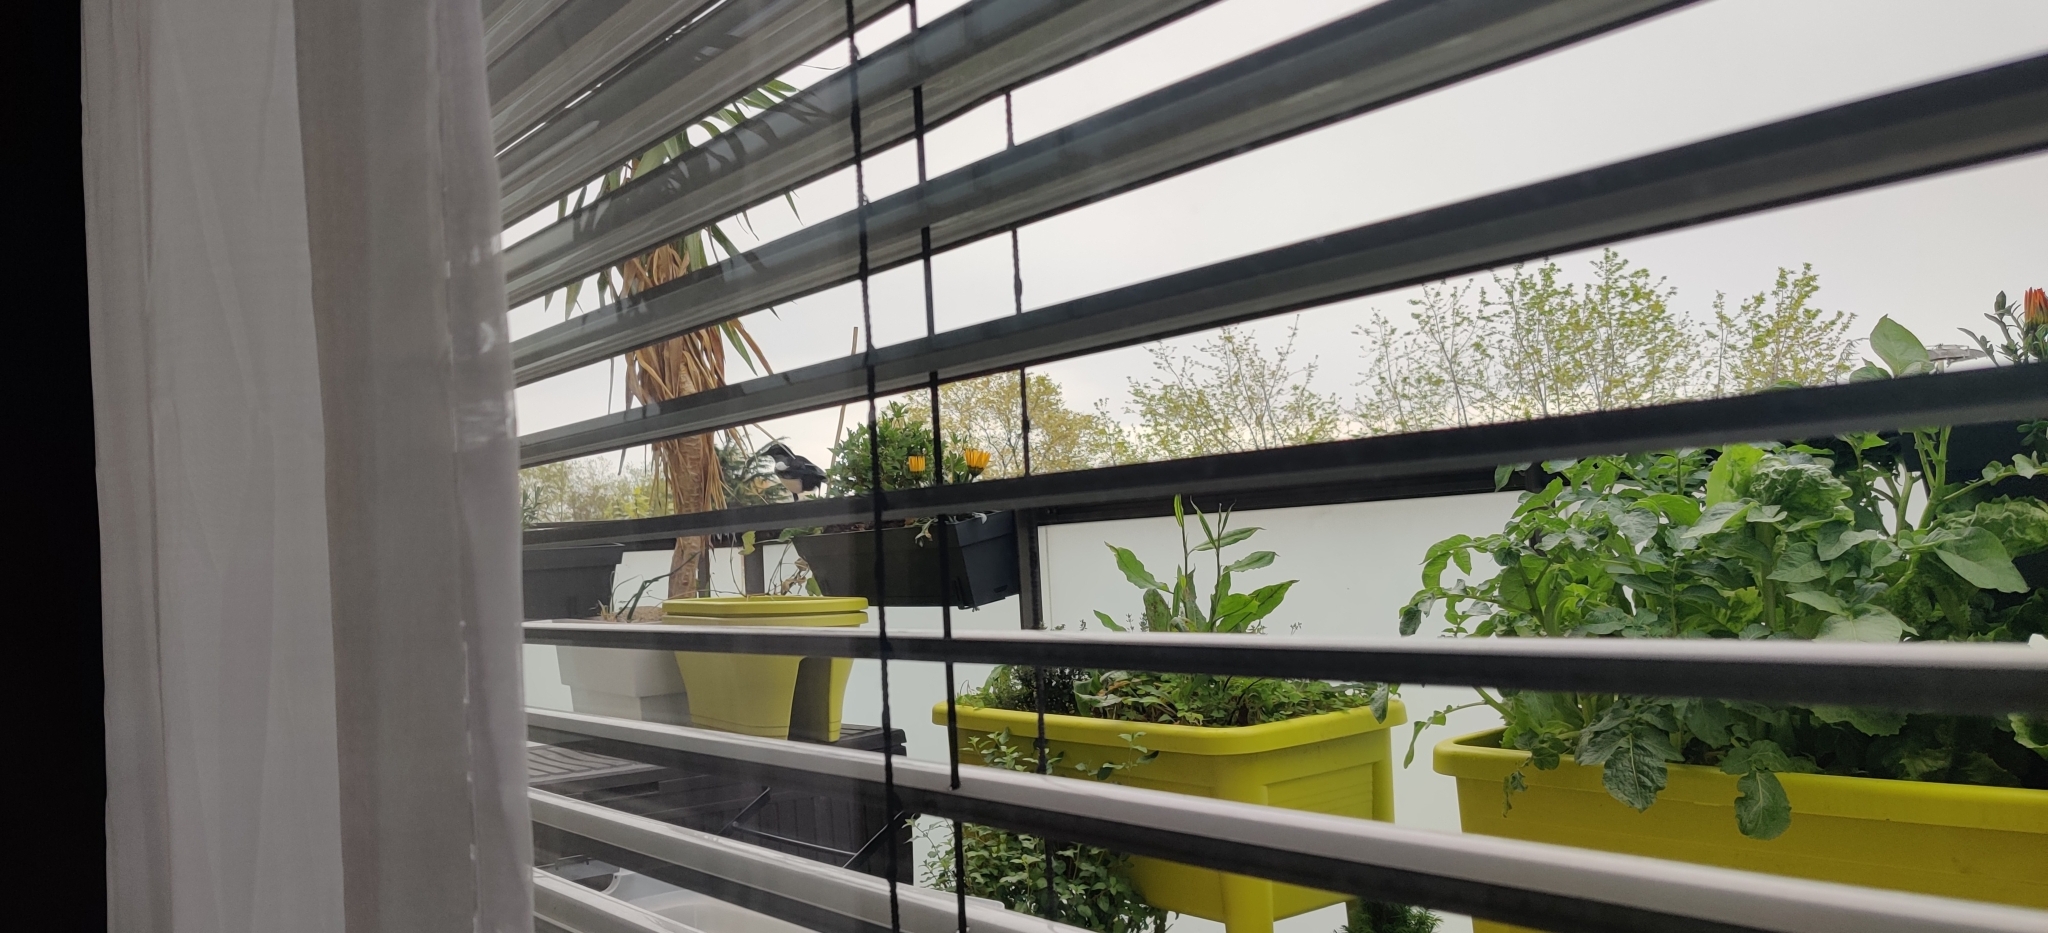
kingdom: Animalia
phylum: Chordata
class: Aves
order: Passeriformes
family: Corvidae
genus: Pica
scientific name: Pica pica
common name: Eurasian magpie
